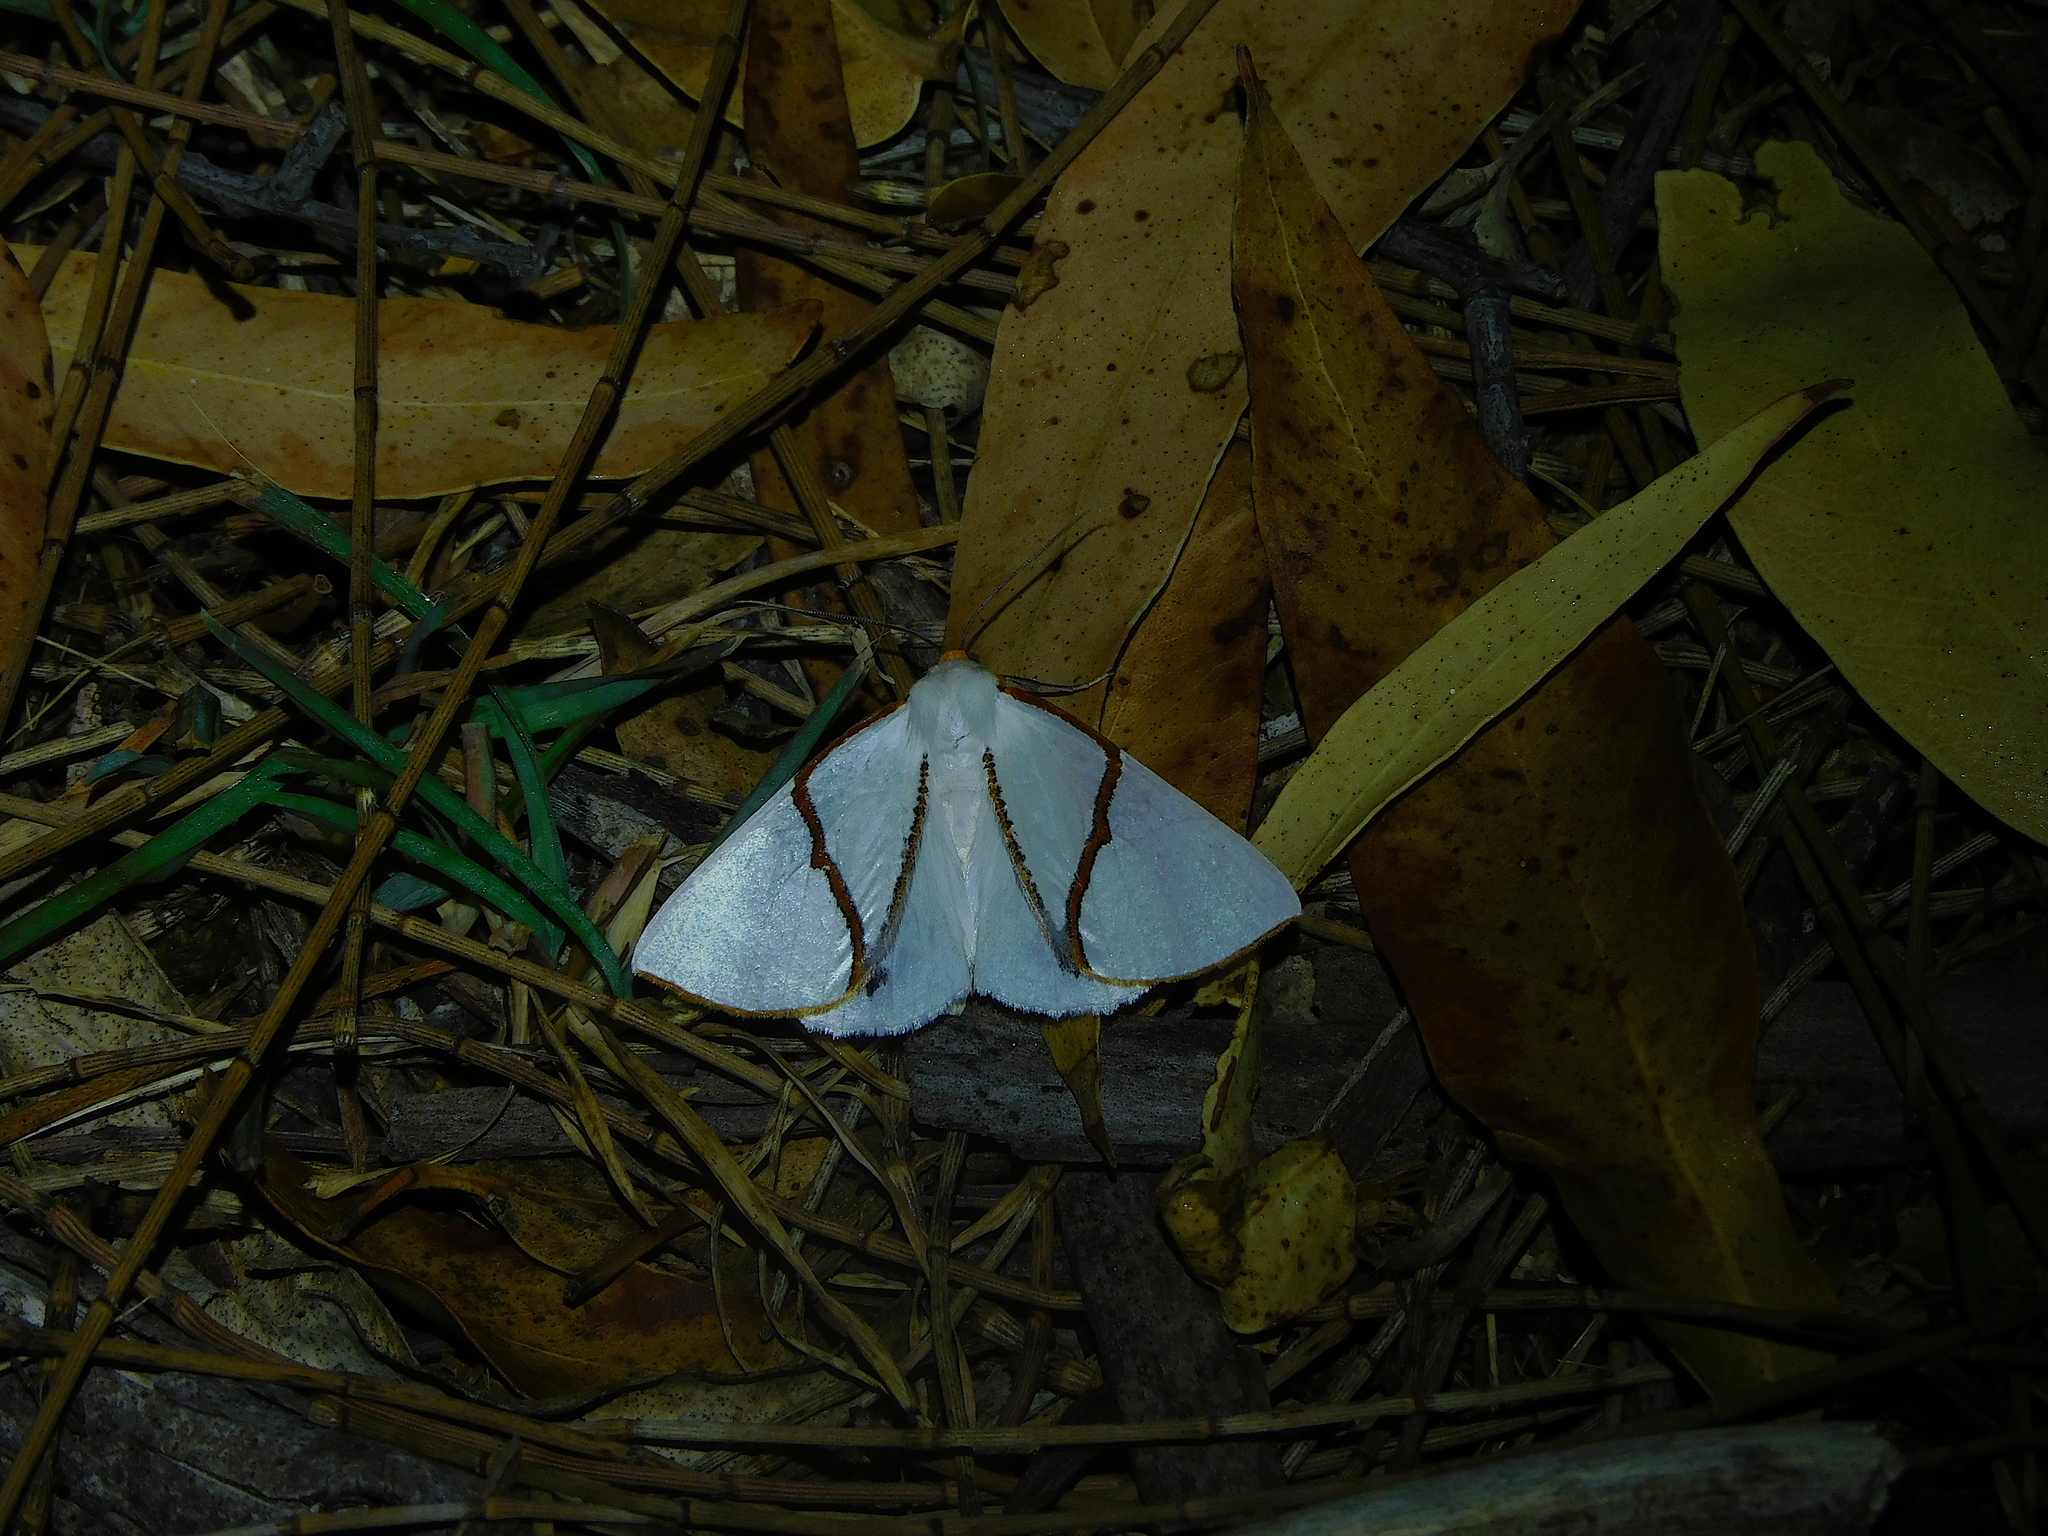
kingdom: Animalia
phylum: Arthropoda
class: Insecta
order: Lepidoptera
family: Geometridae
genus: Thalaina
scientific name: Thalaina selenaea
